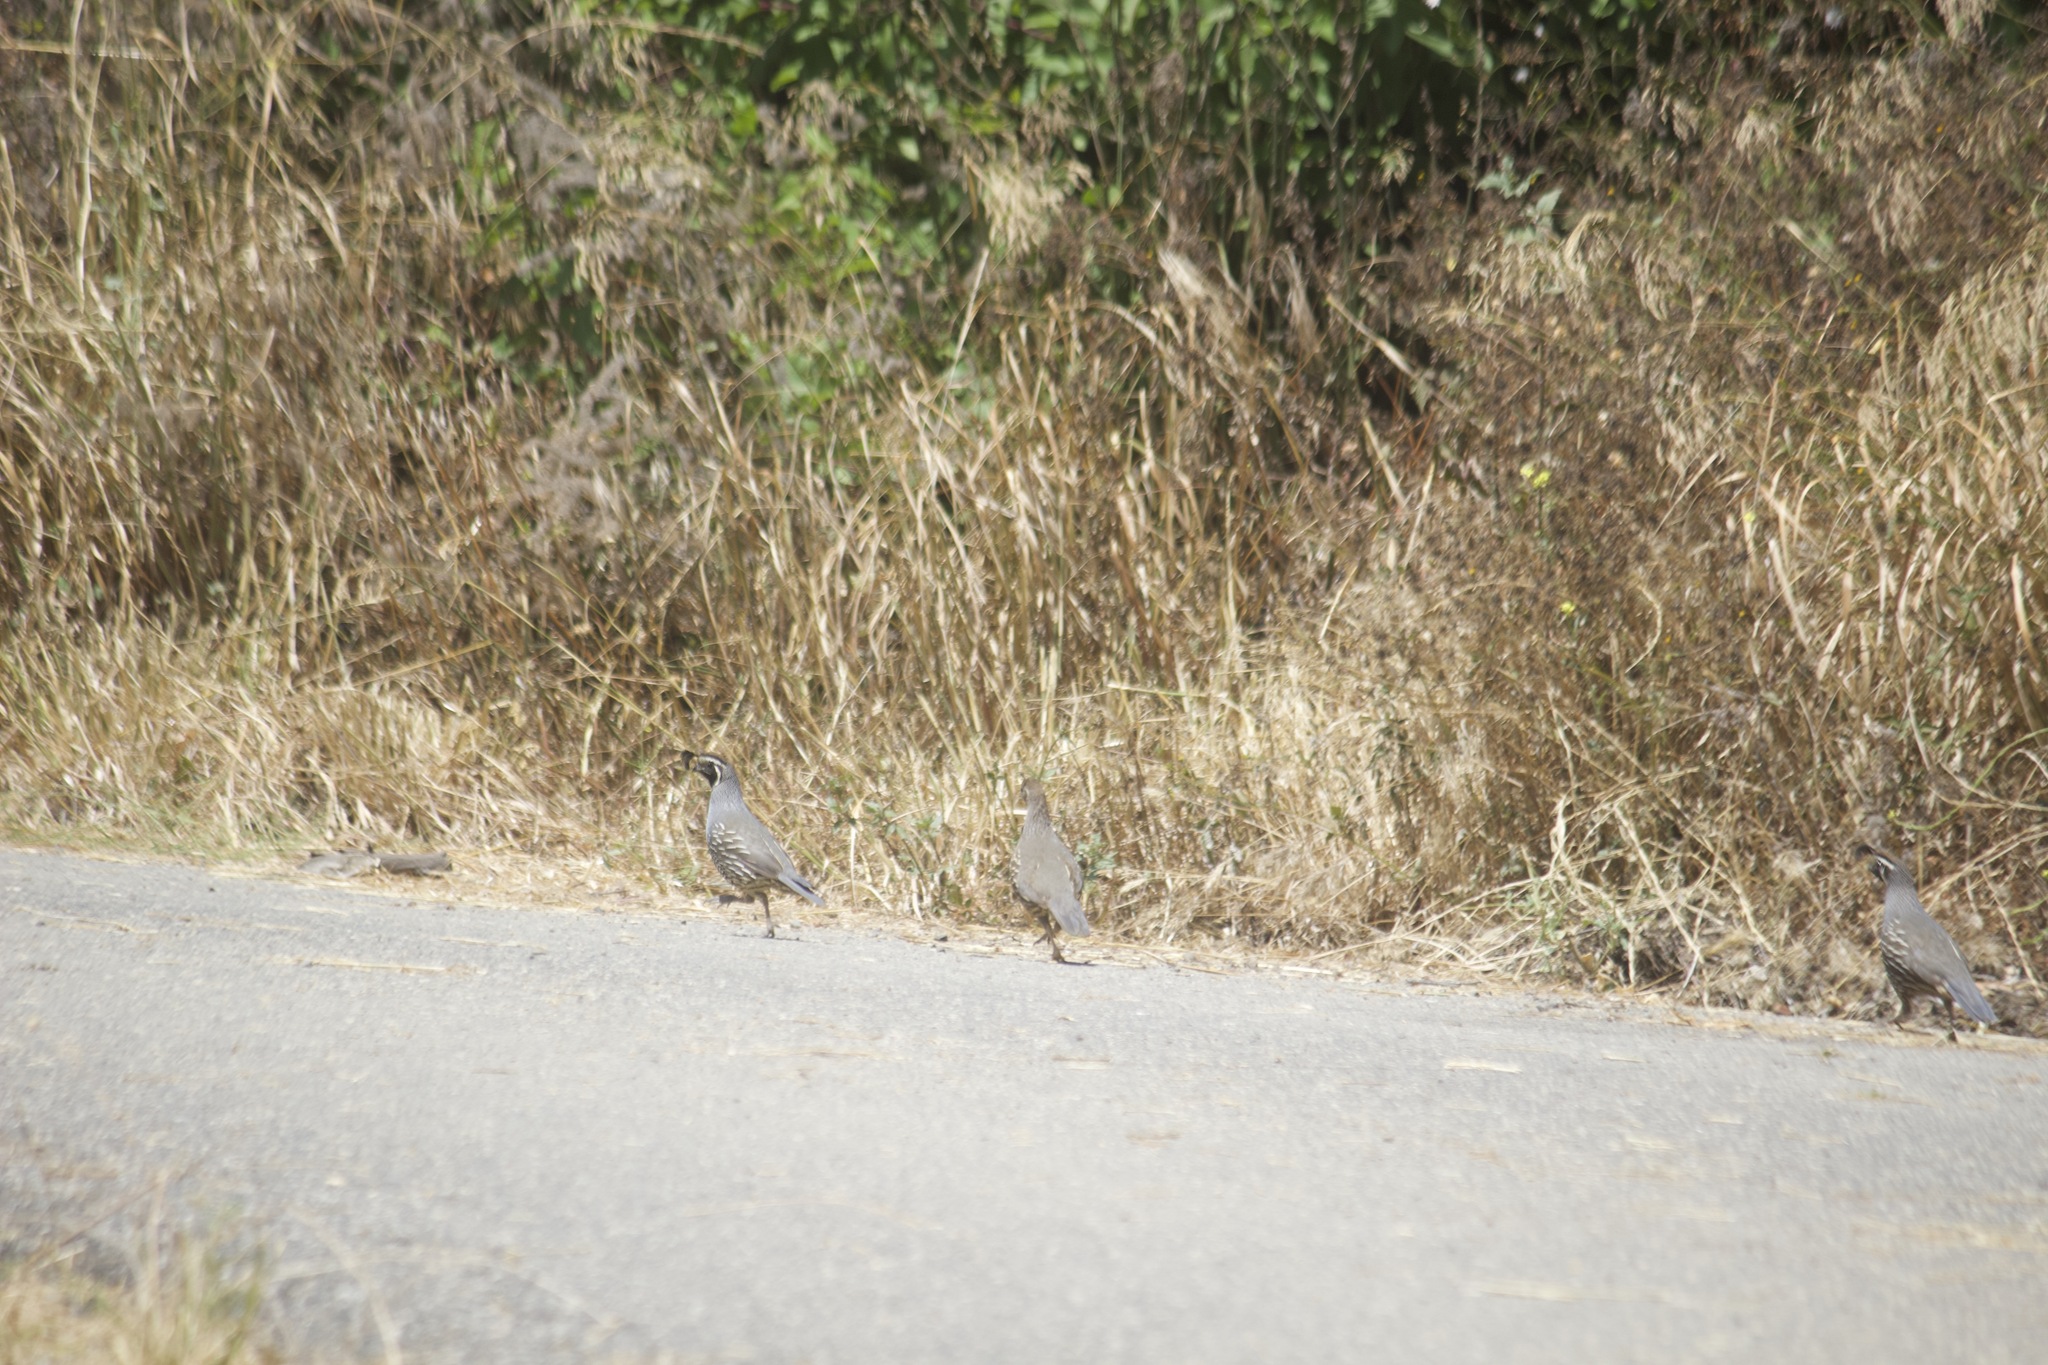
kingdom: Animalia
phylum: Chordata
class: Aves
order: Galliformes
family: Odontophoridae
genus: Callipepla
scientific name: Callipepla californica
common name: California quail
